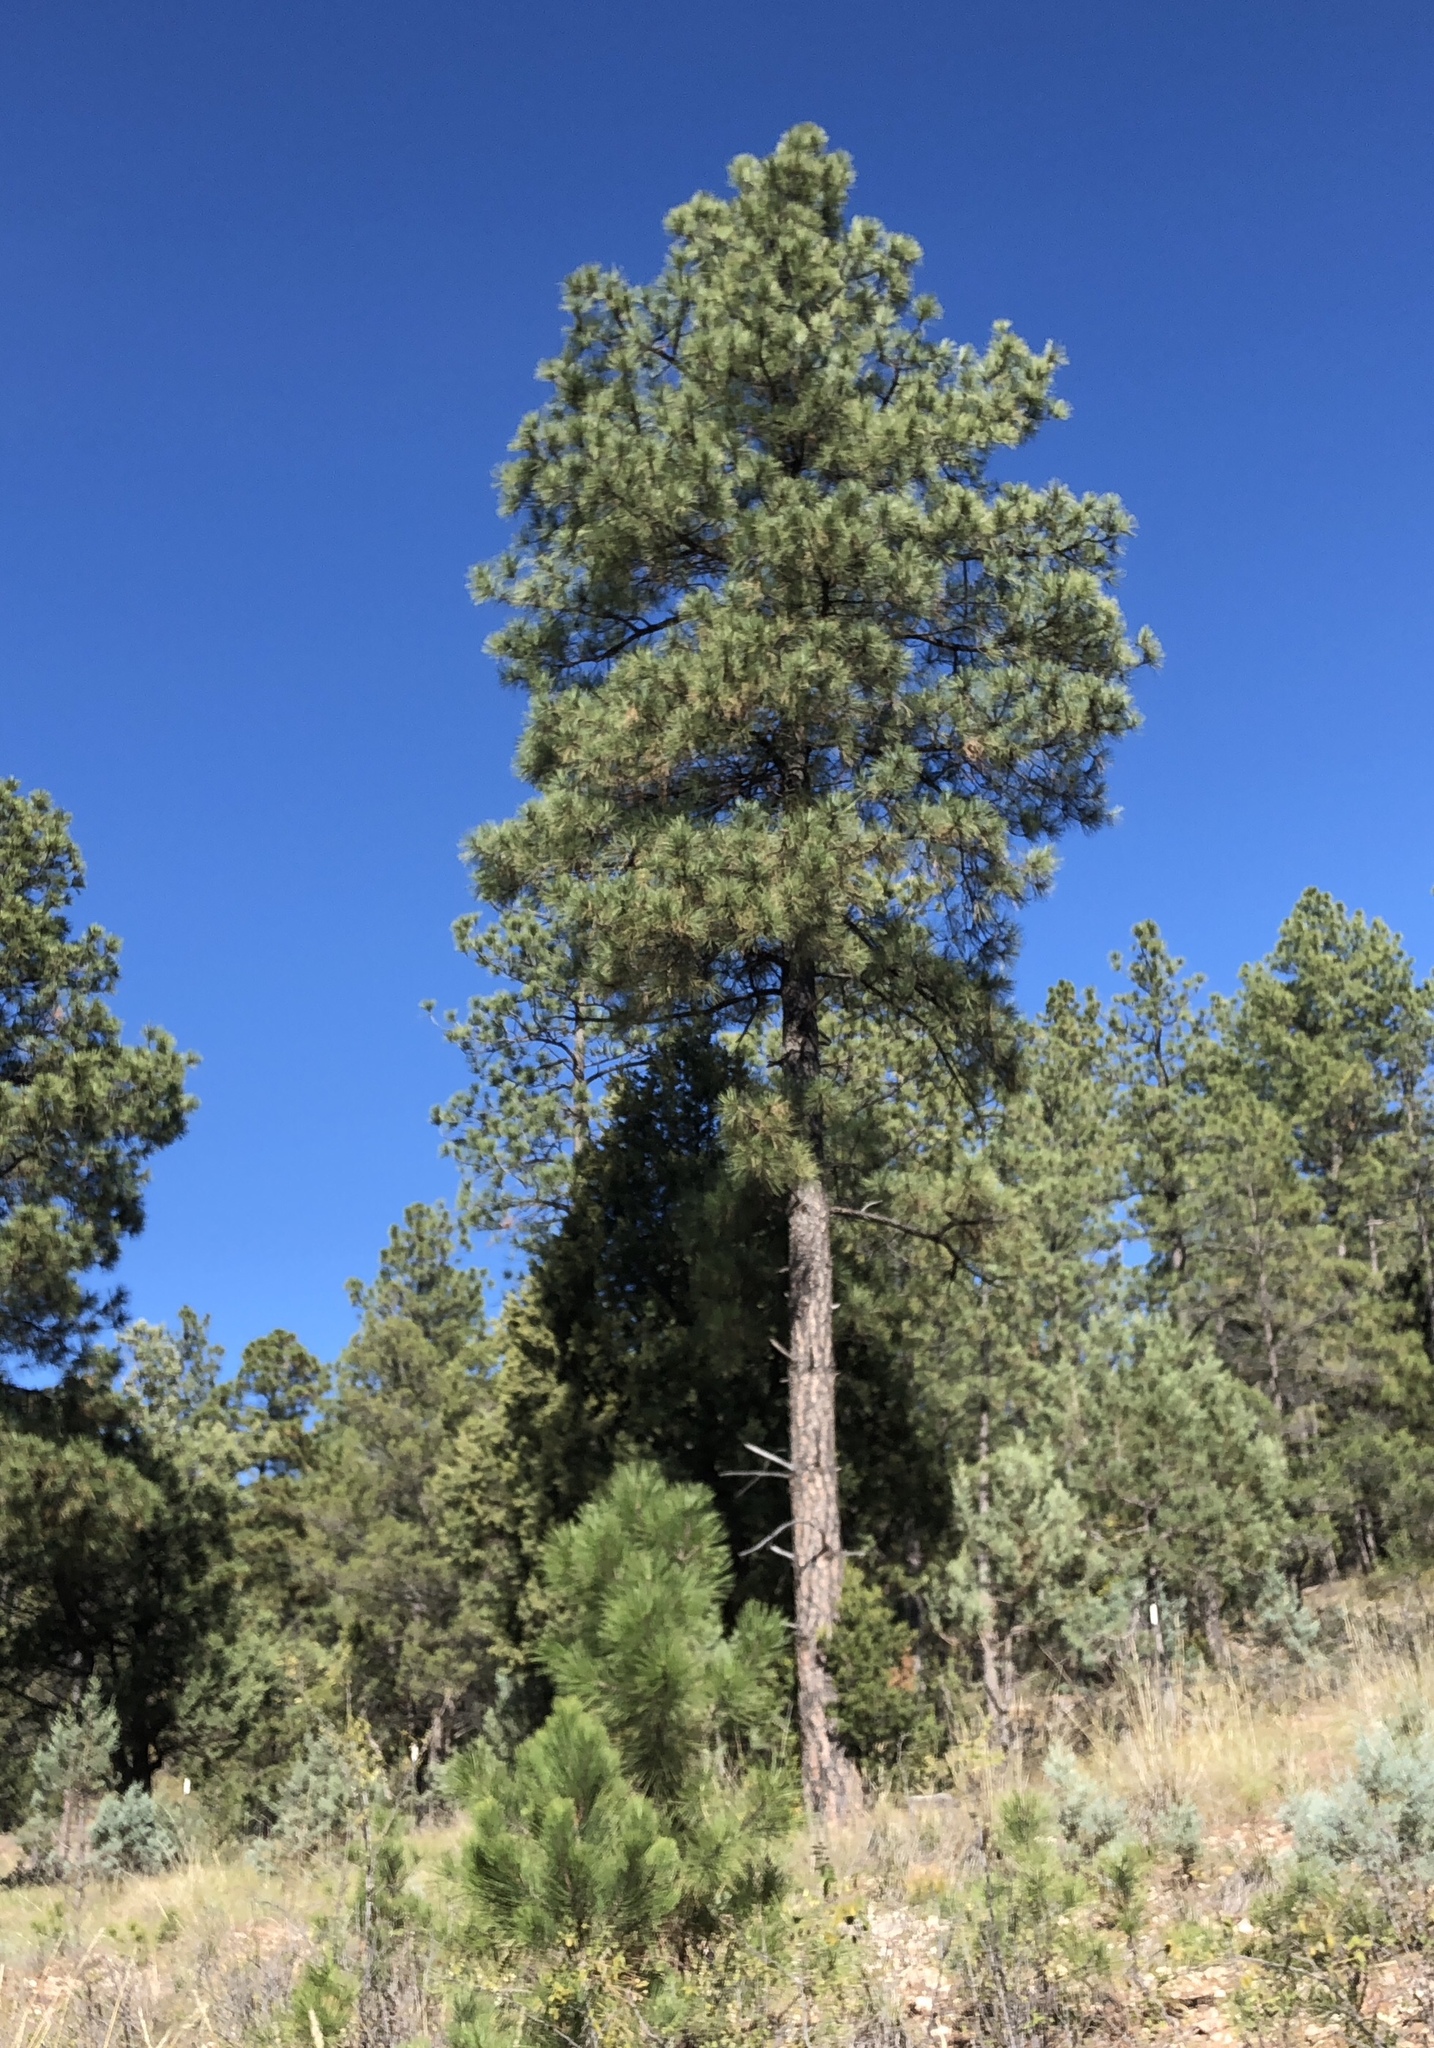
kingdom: Plantae
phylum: Tracheophyta
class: Pinopsida
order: Pinales
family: Pinaceae
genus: Pinus
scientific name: Pinus ponderosa
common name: Western yellow-pine
